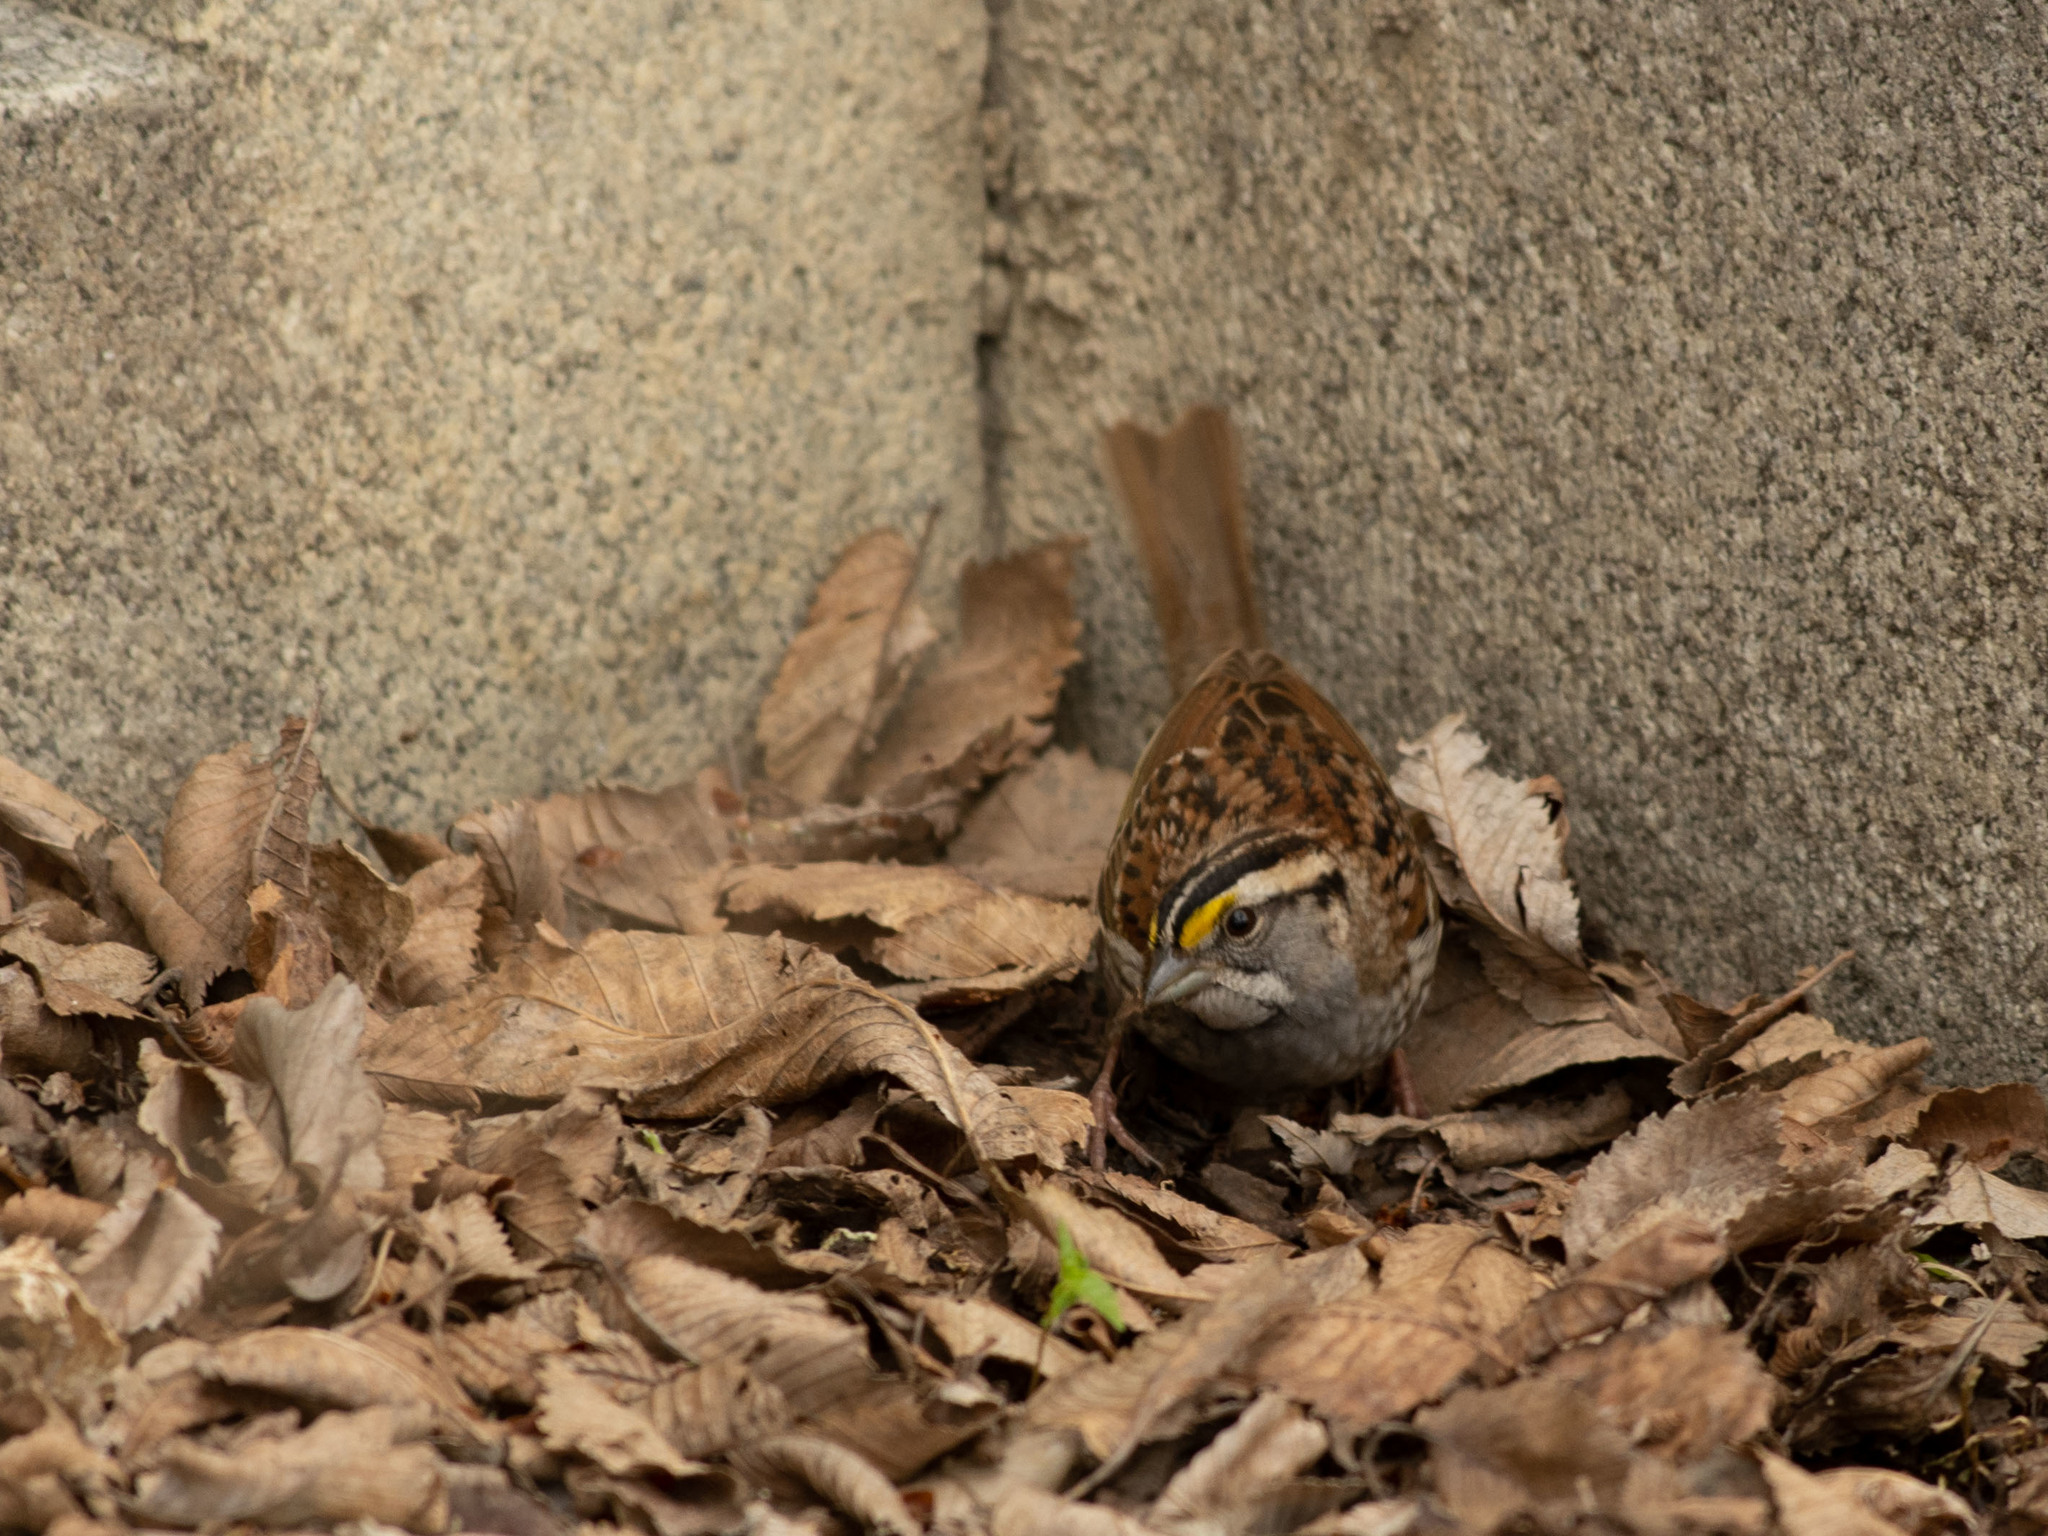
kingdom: Animalia
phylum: Chordata
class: Aves
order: Passeriformes
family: Passerellidae
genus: Zonotrichia
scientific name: Zonotrichia albicollis
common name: White-throated sparrow
